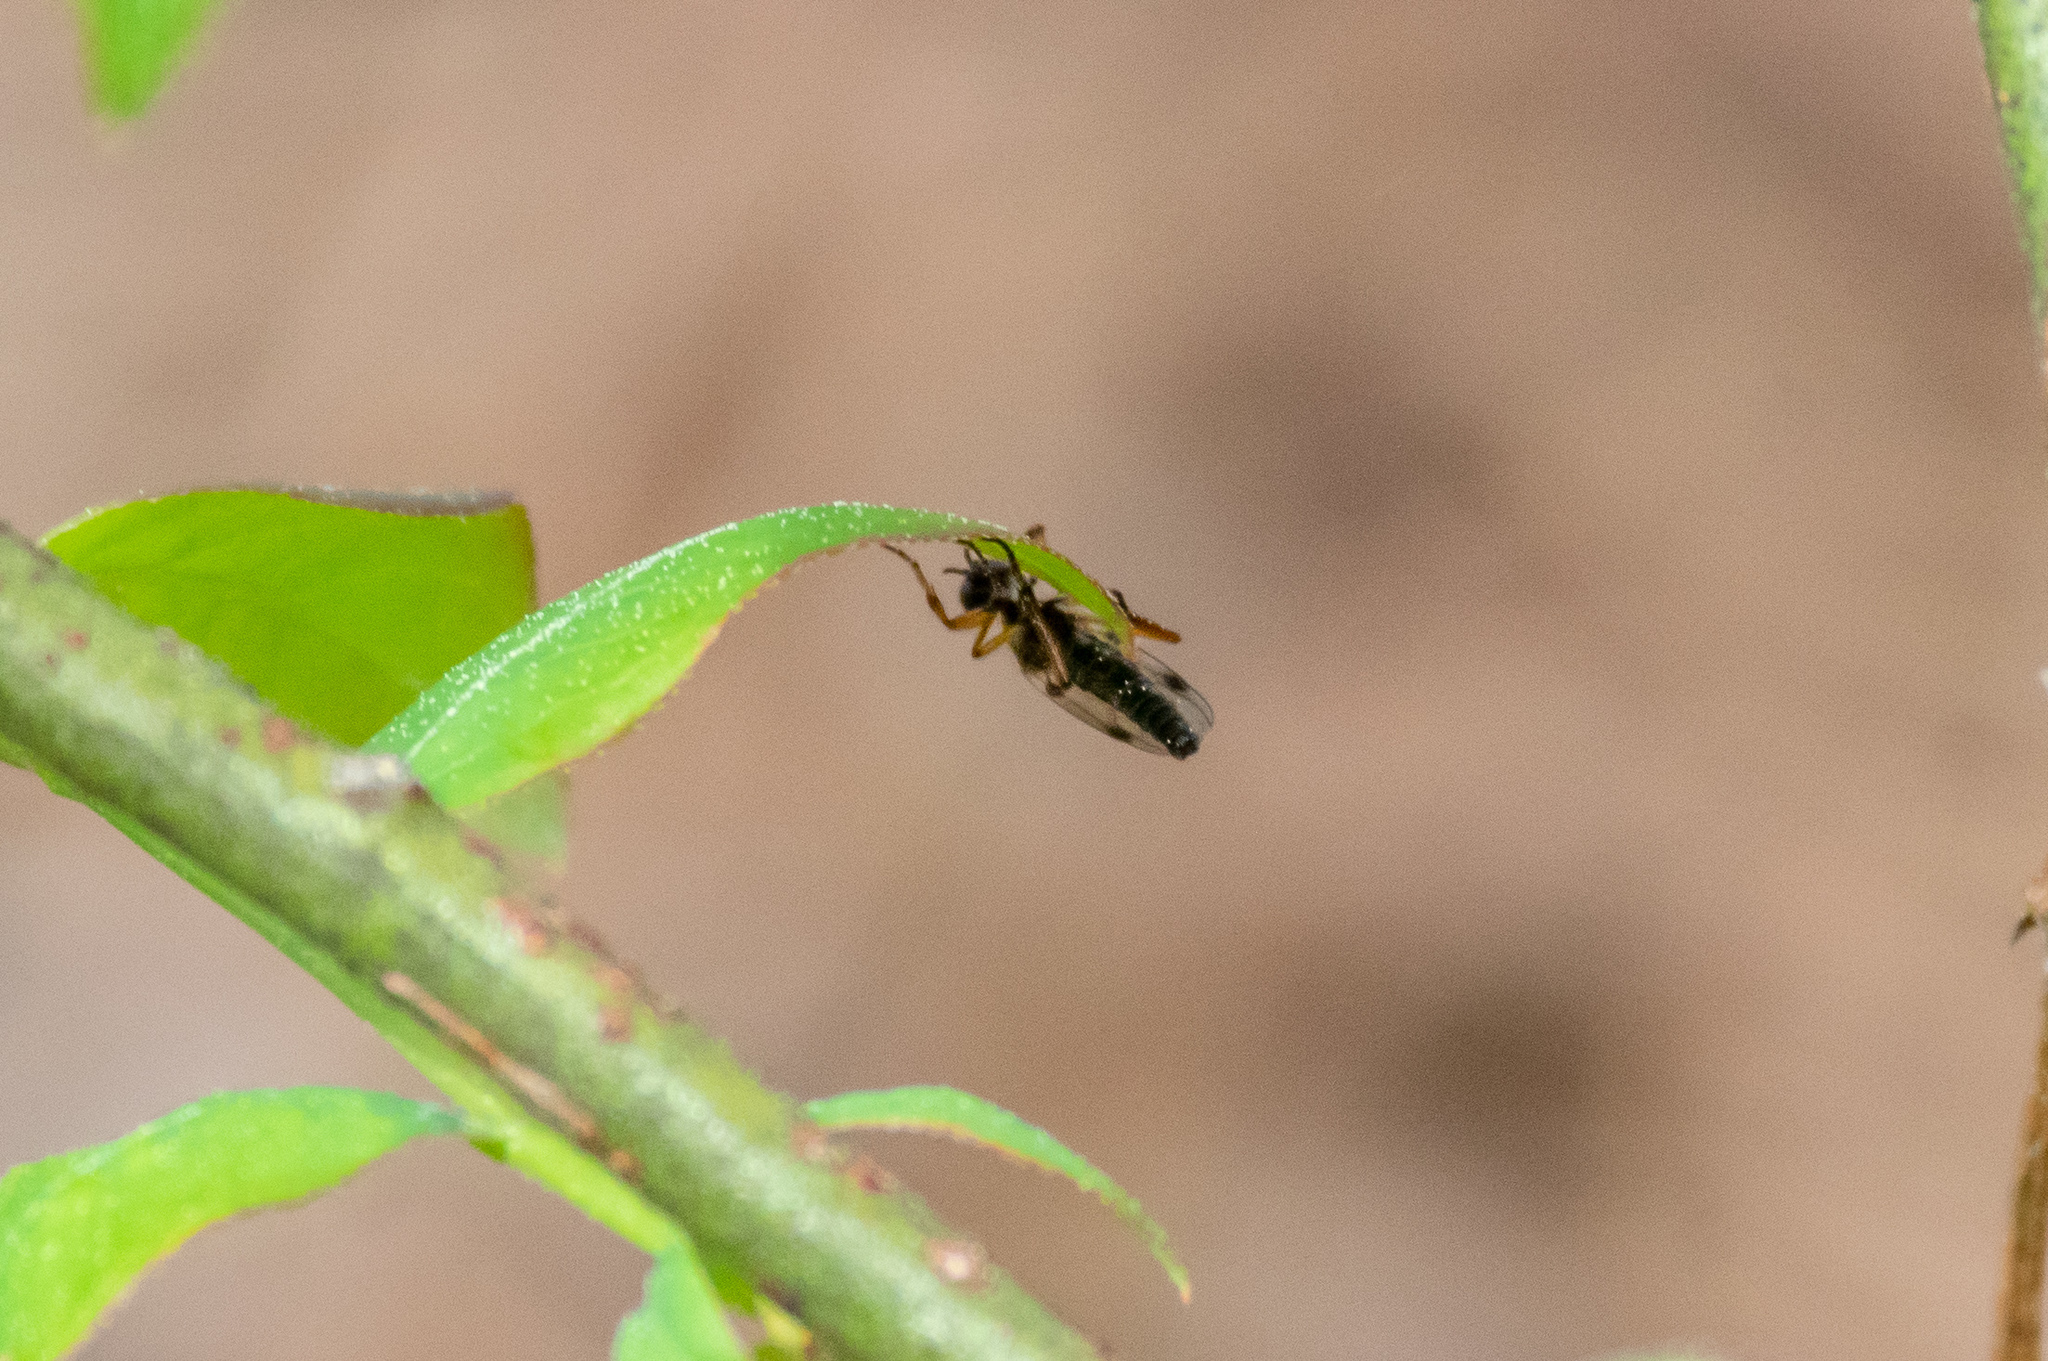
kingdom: Animalia
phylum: Arthropoda
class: Insecta
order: Diptera
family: Bibionidae
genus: Bibio
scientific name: Bibio articulatus
